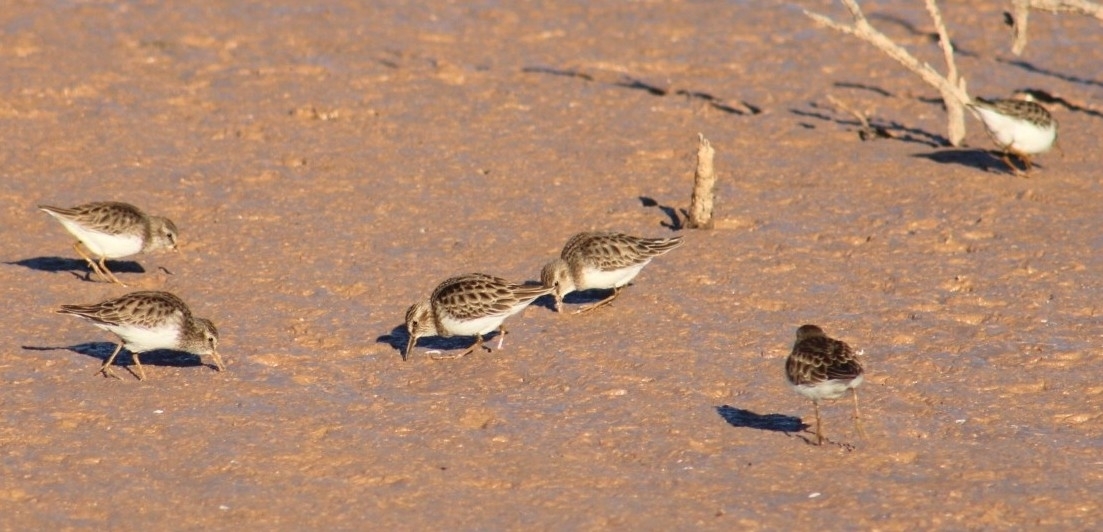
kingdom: Animalia
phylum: Chordata
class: Aves
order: Charadriiformes
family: Scolopacidae
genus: Calidris
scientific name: Calidris minutilla
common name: Least sandpiper
